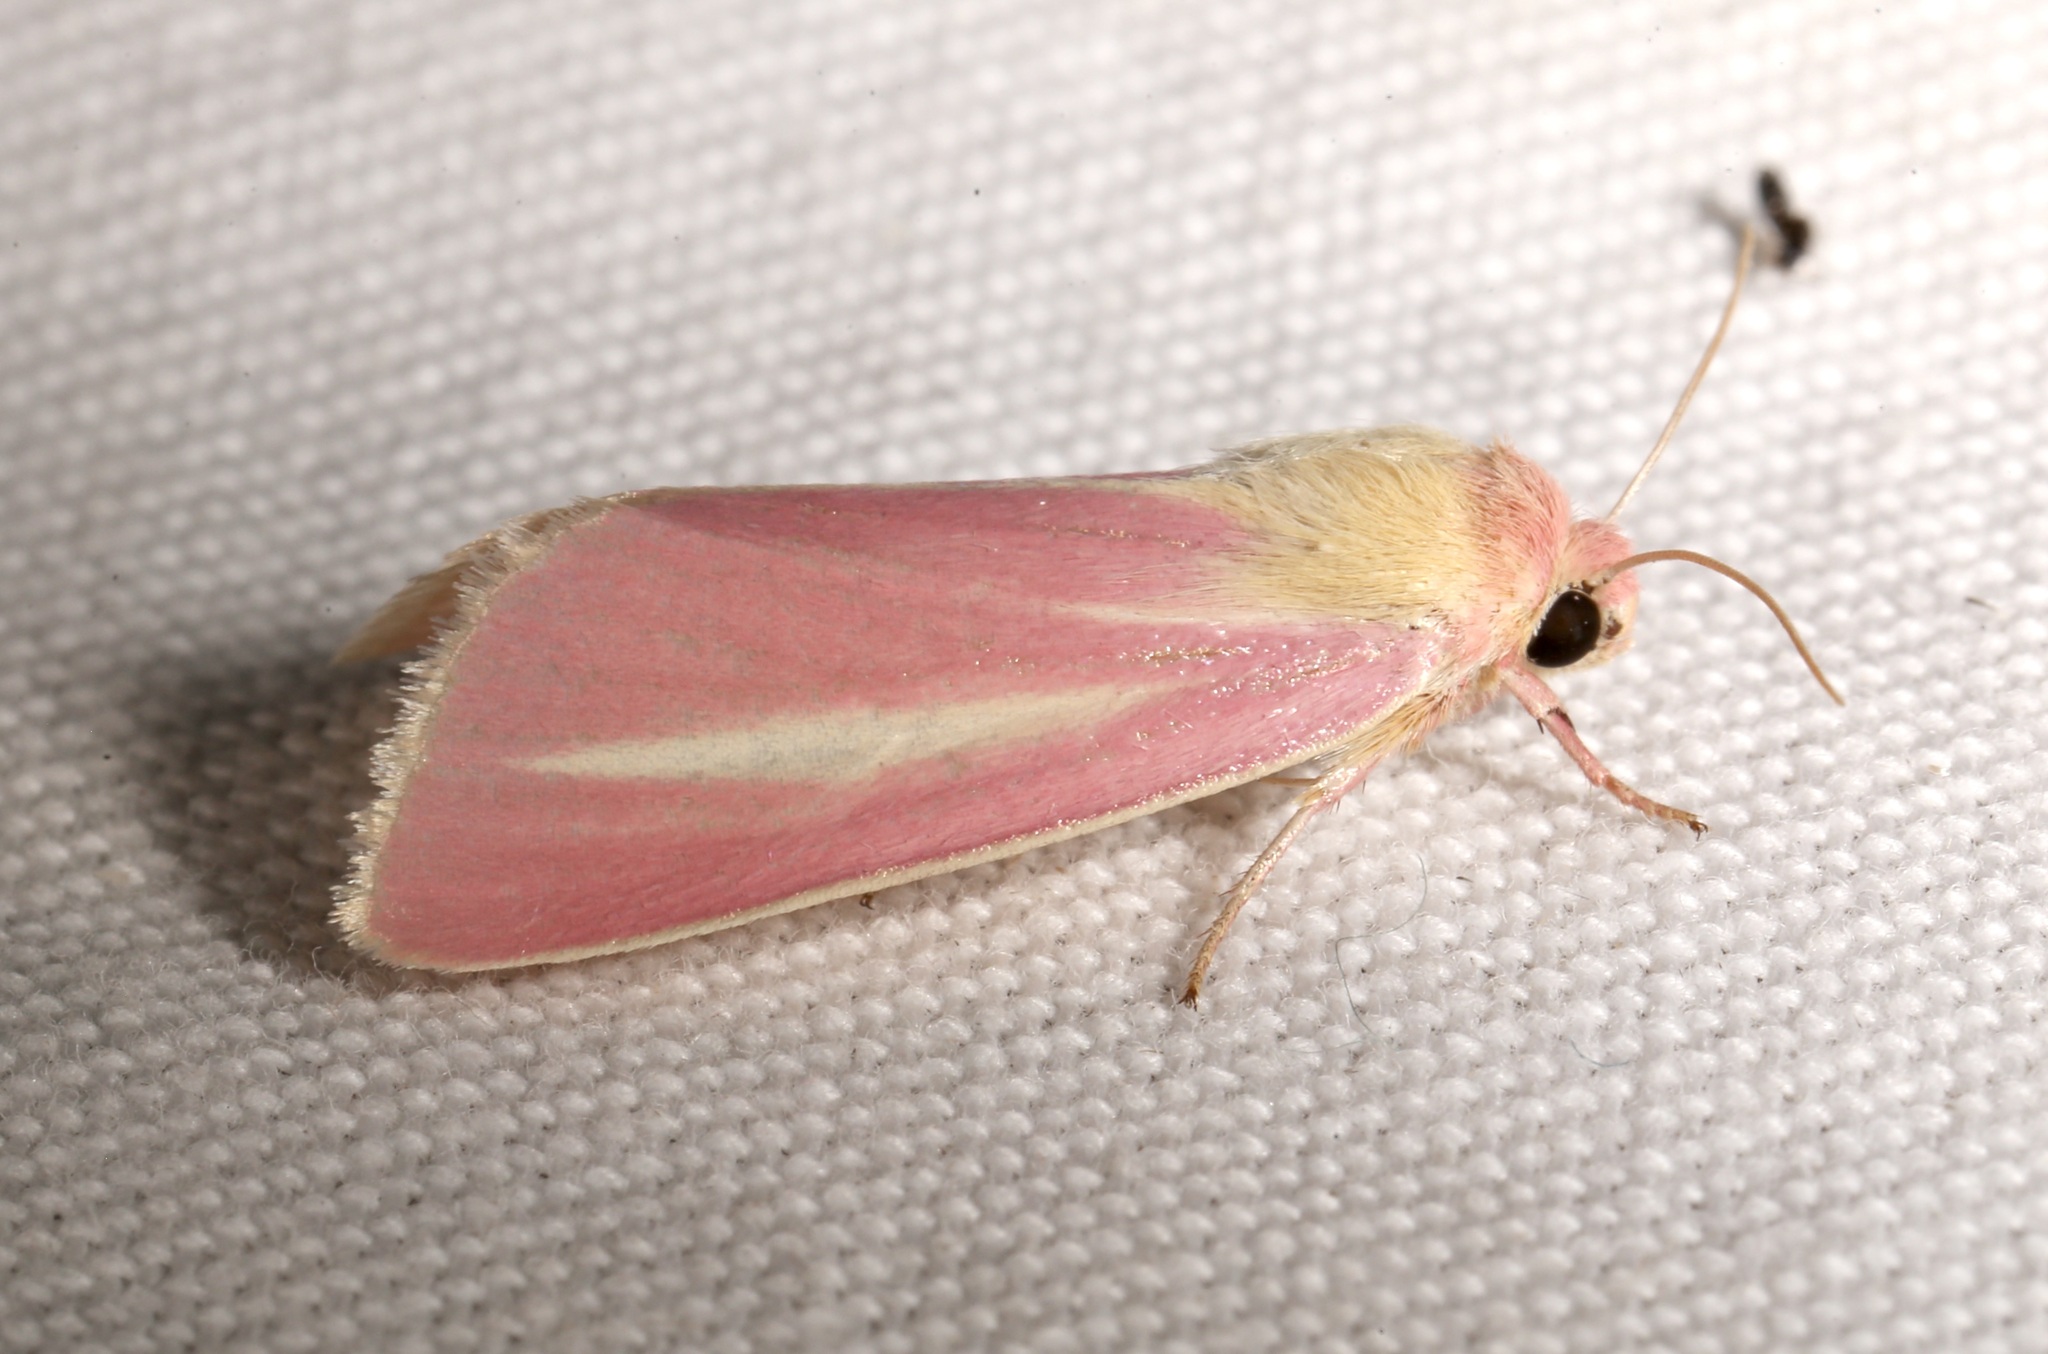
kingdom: Animalia
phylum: Arthropoda
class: Insecta
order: Lepidoptera
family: Noctuidae
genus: Heliocheilus
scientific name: Heliocheilus julia
